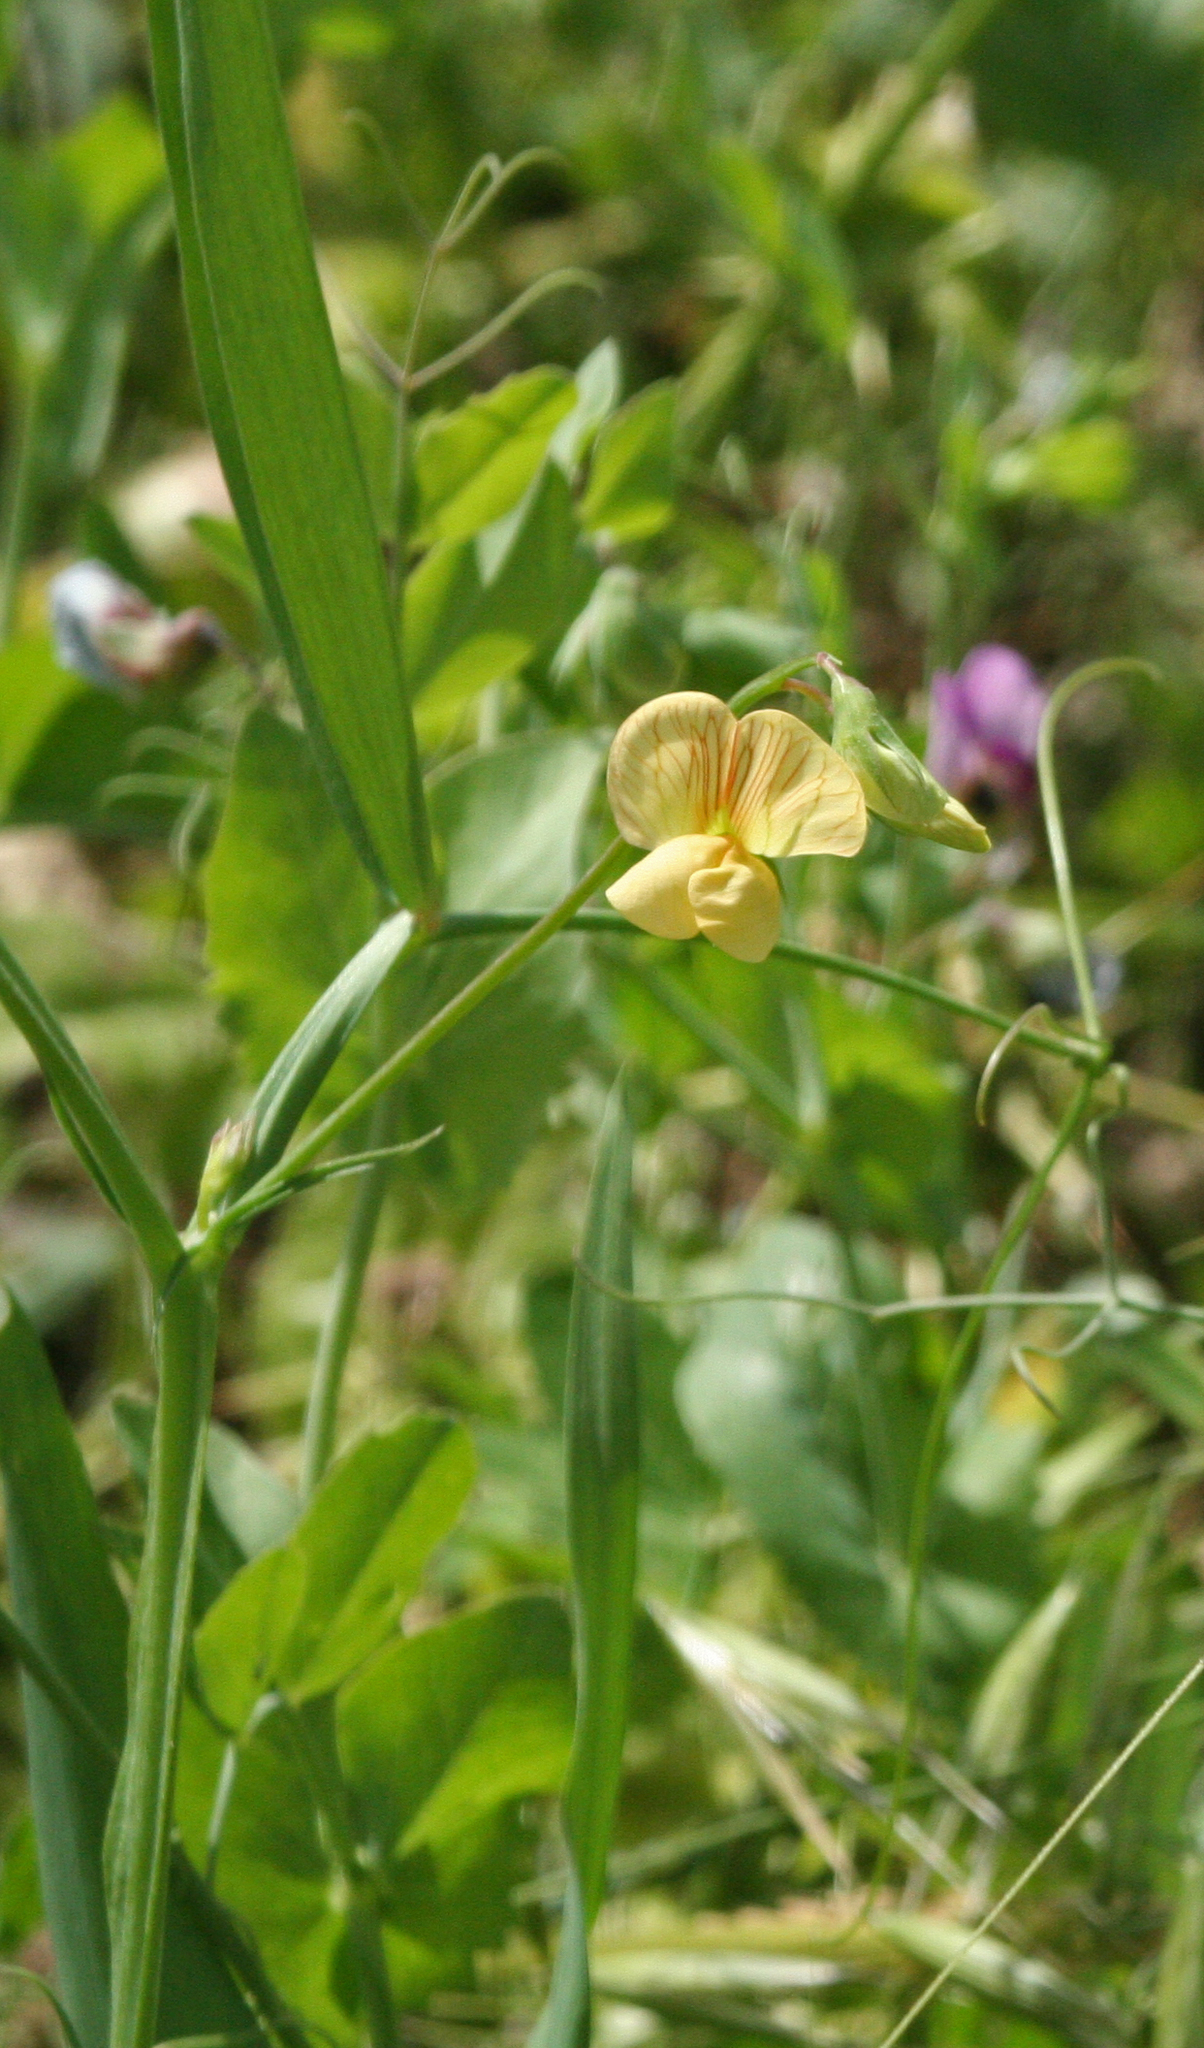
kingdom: Plantae
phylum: Tracheophyta
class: Magnoliopsida
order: Fabales
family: Fabaceae
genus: Lathyrus
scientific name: Lathyrus hierosolymitanus
